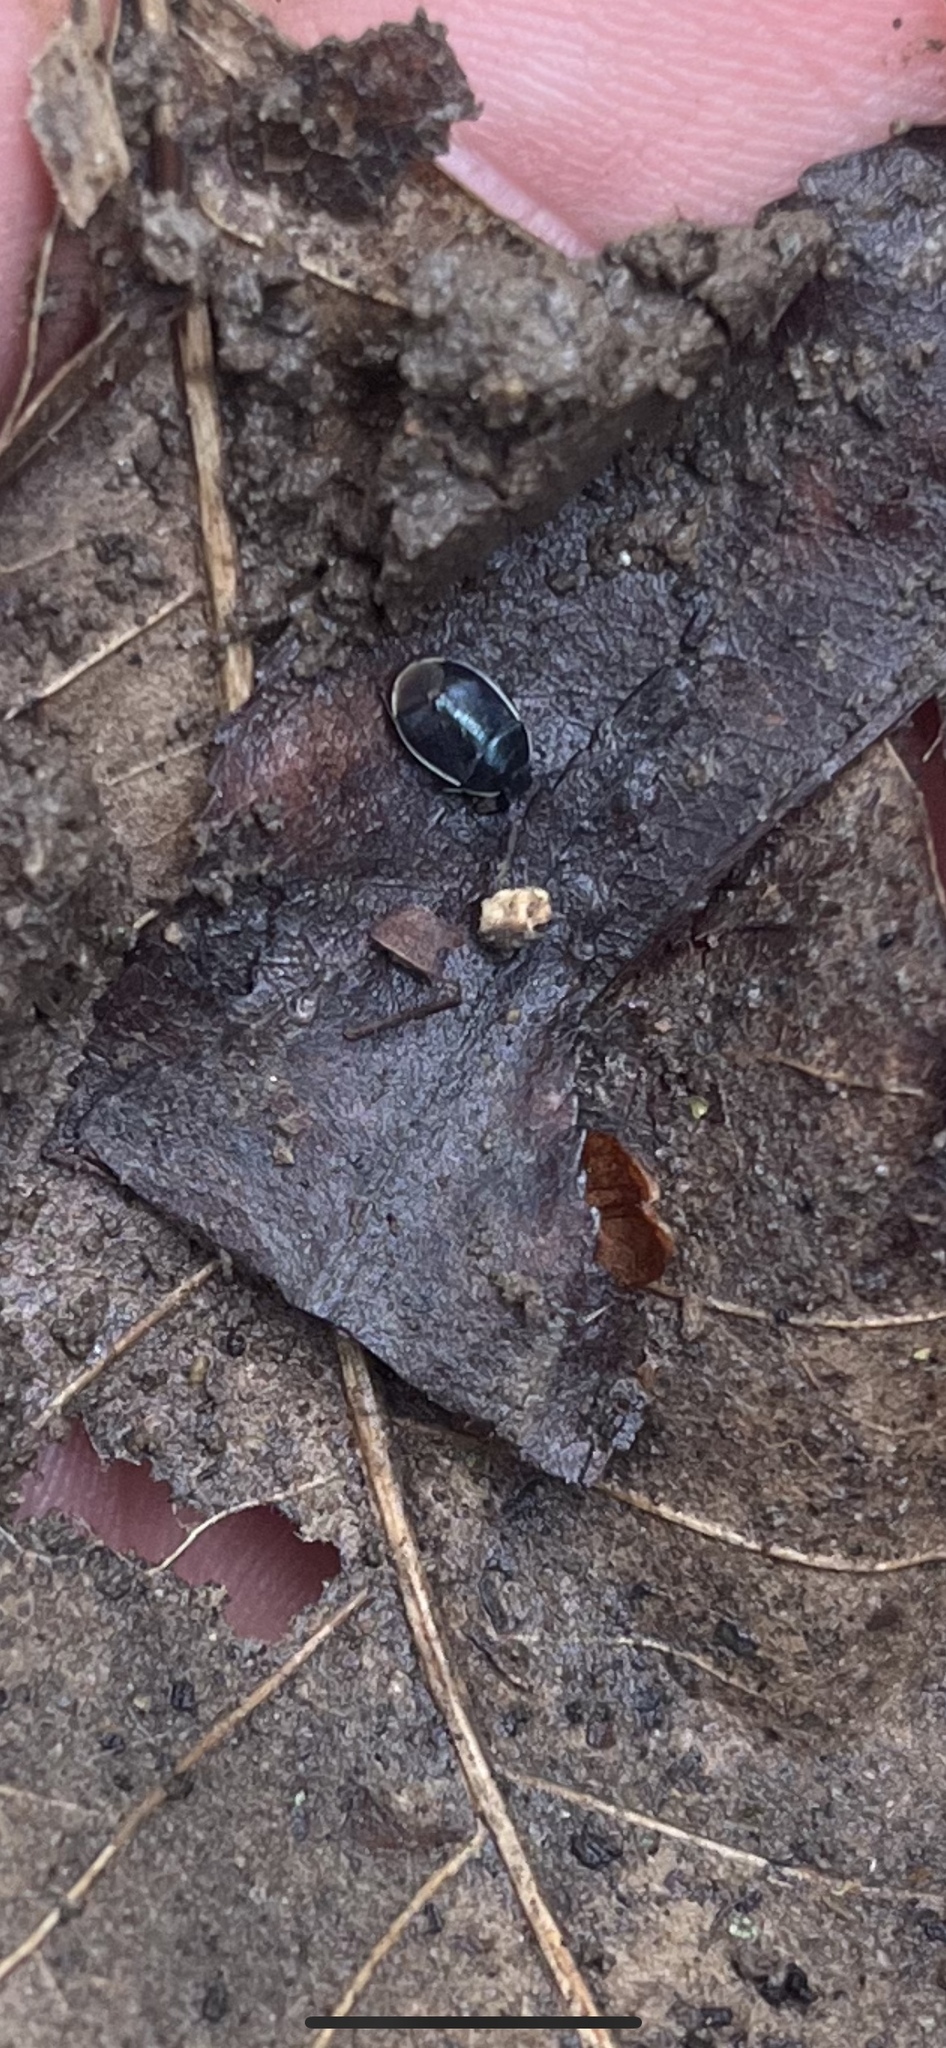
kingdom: Animalia
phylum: Arthropoda
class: Insecta
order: Hemiptera
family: Cydnidae
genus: Sehirus
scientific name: Sehirus cinctus
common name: White-margined burrower bug
